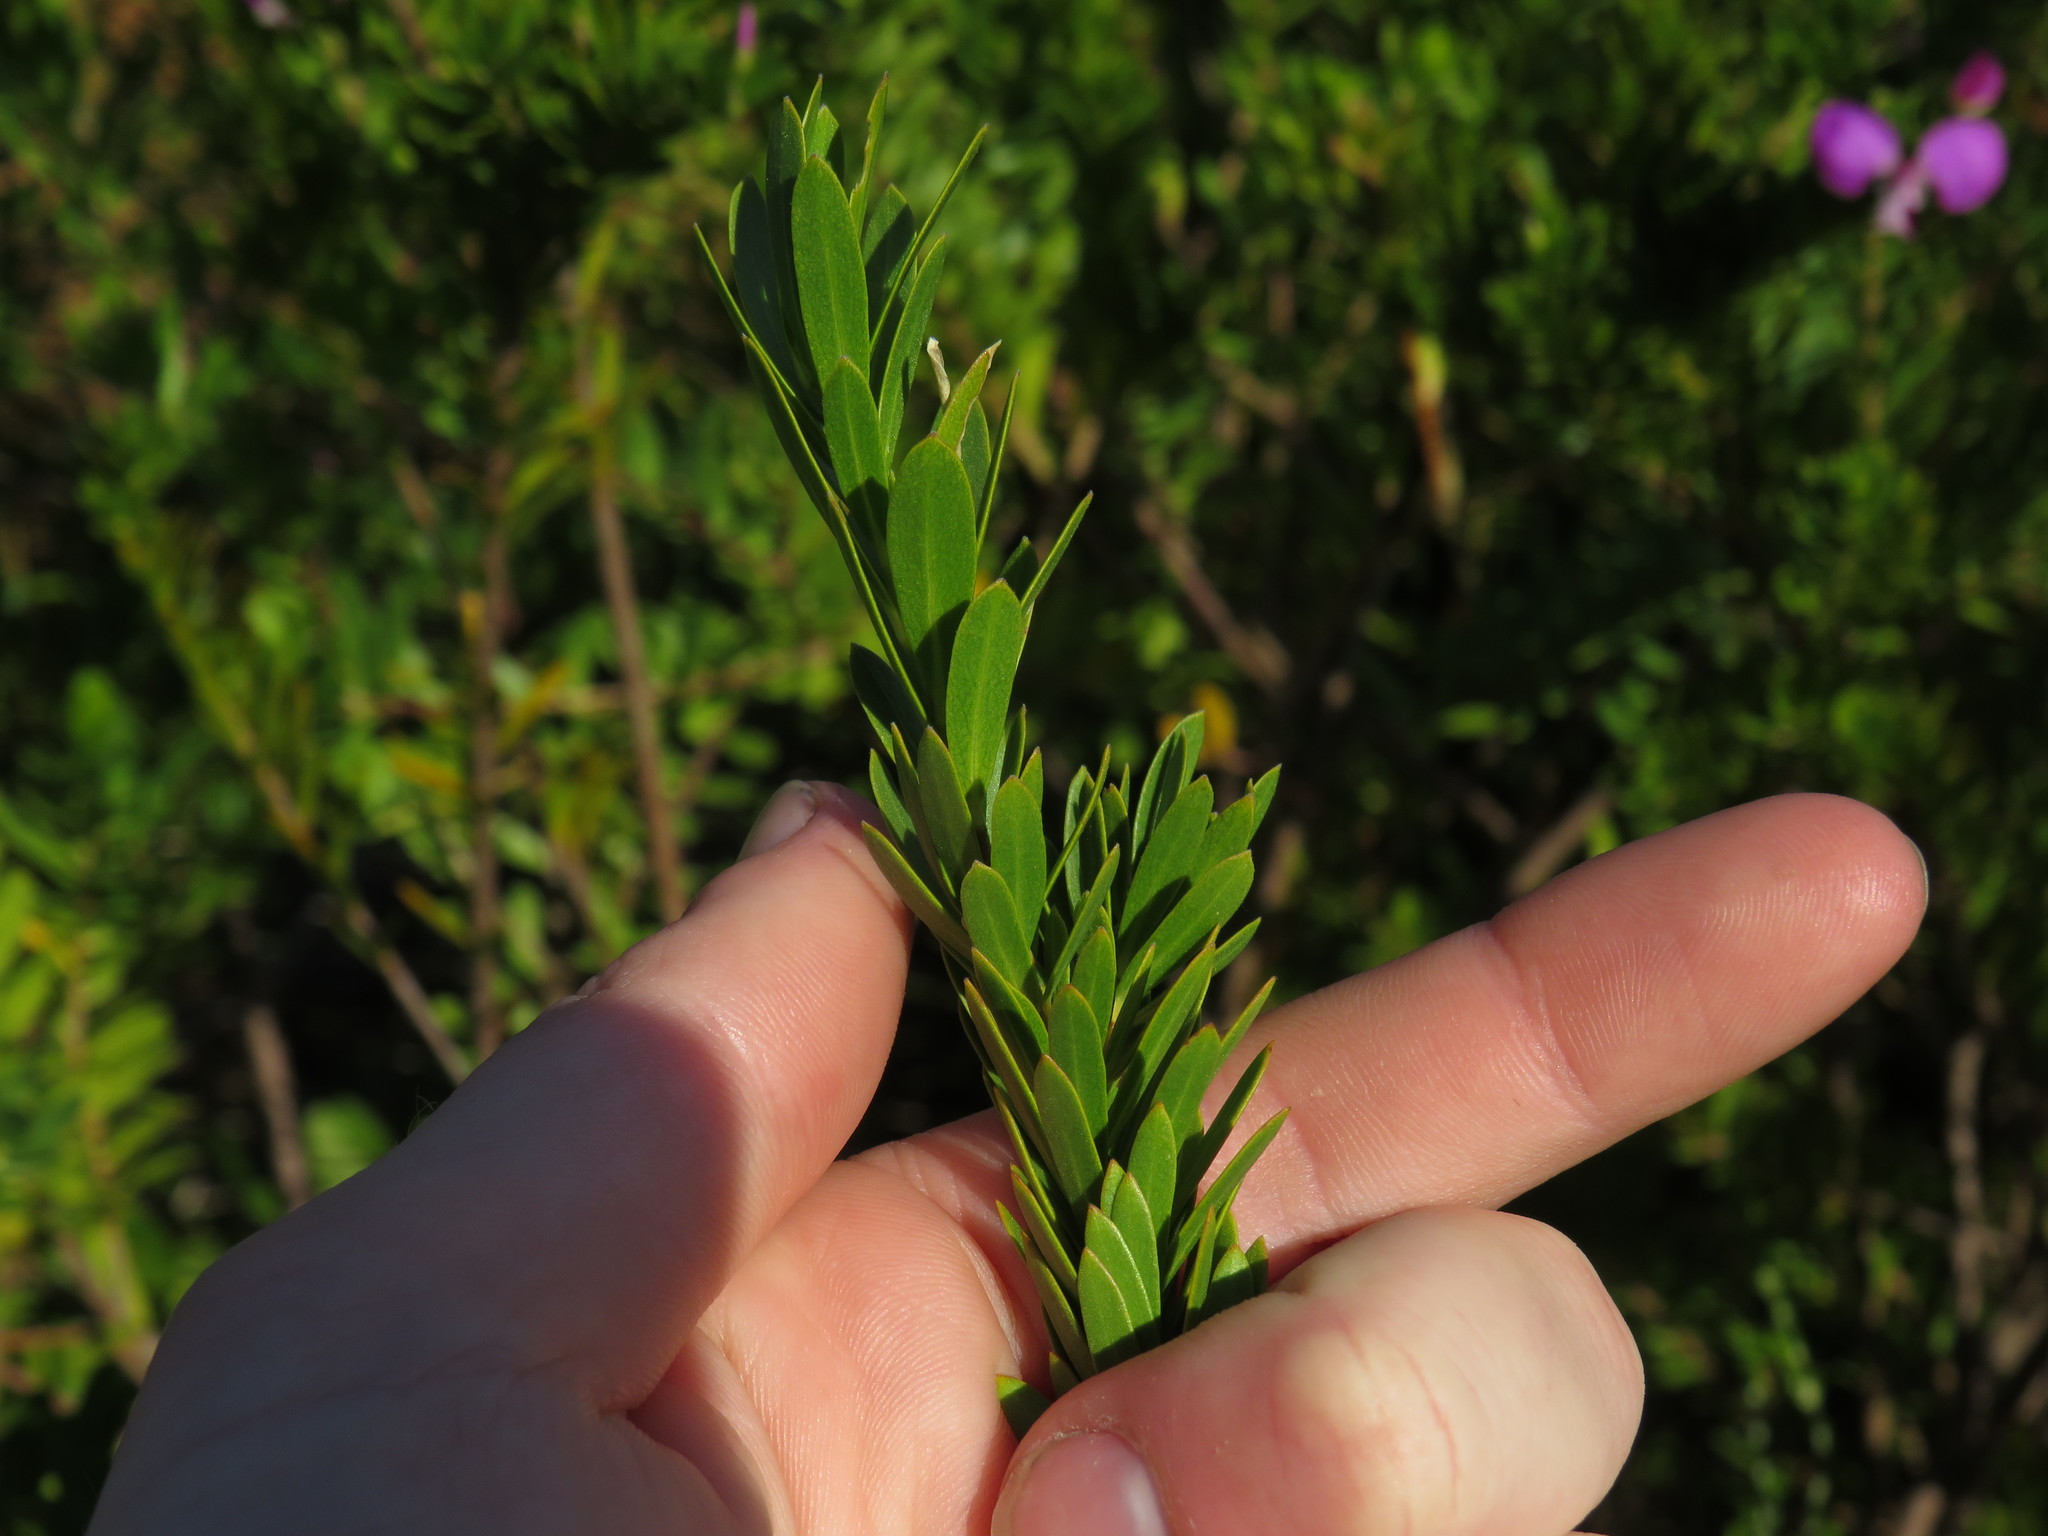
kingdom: Plantae
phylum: Tracheophyta
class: Magnoliopsida
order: Fabales
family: Polygalaceae
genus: Polygala
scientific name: Polygala myrtifolia
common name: Myrtle-leaf milkwort
